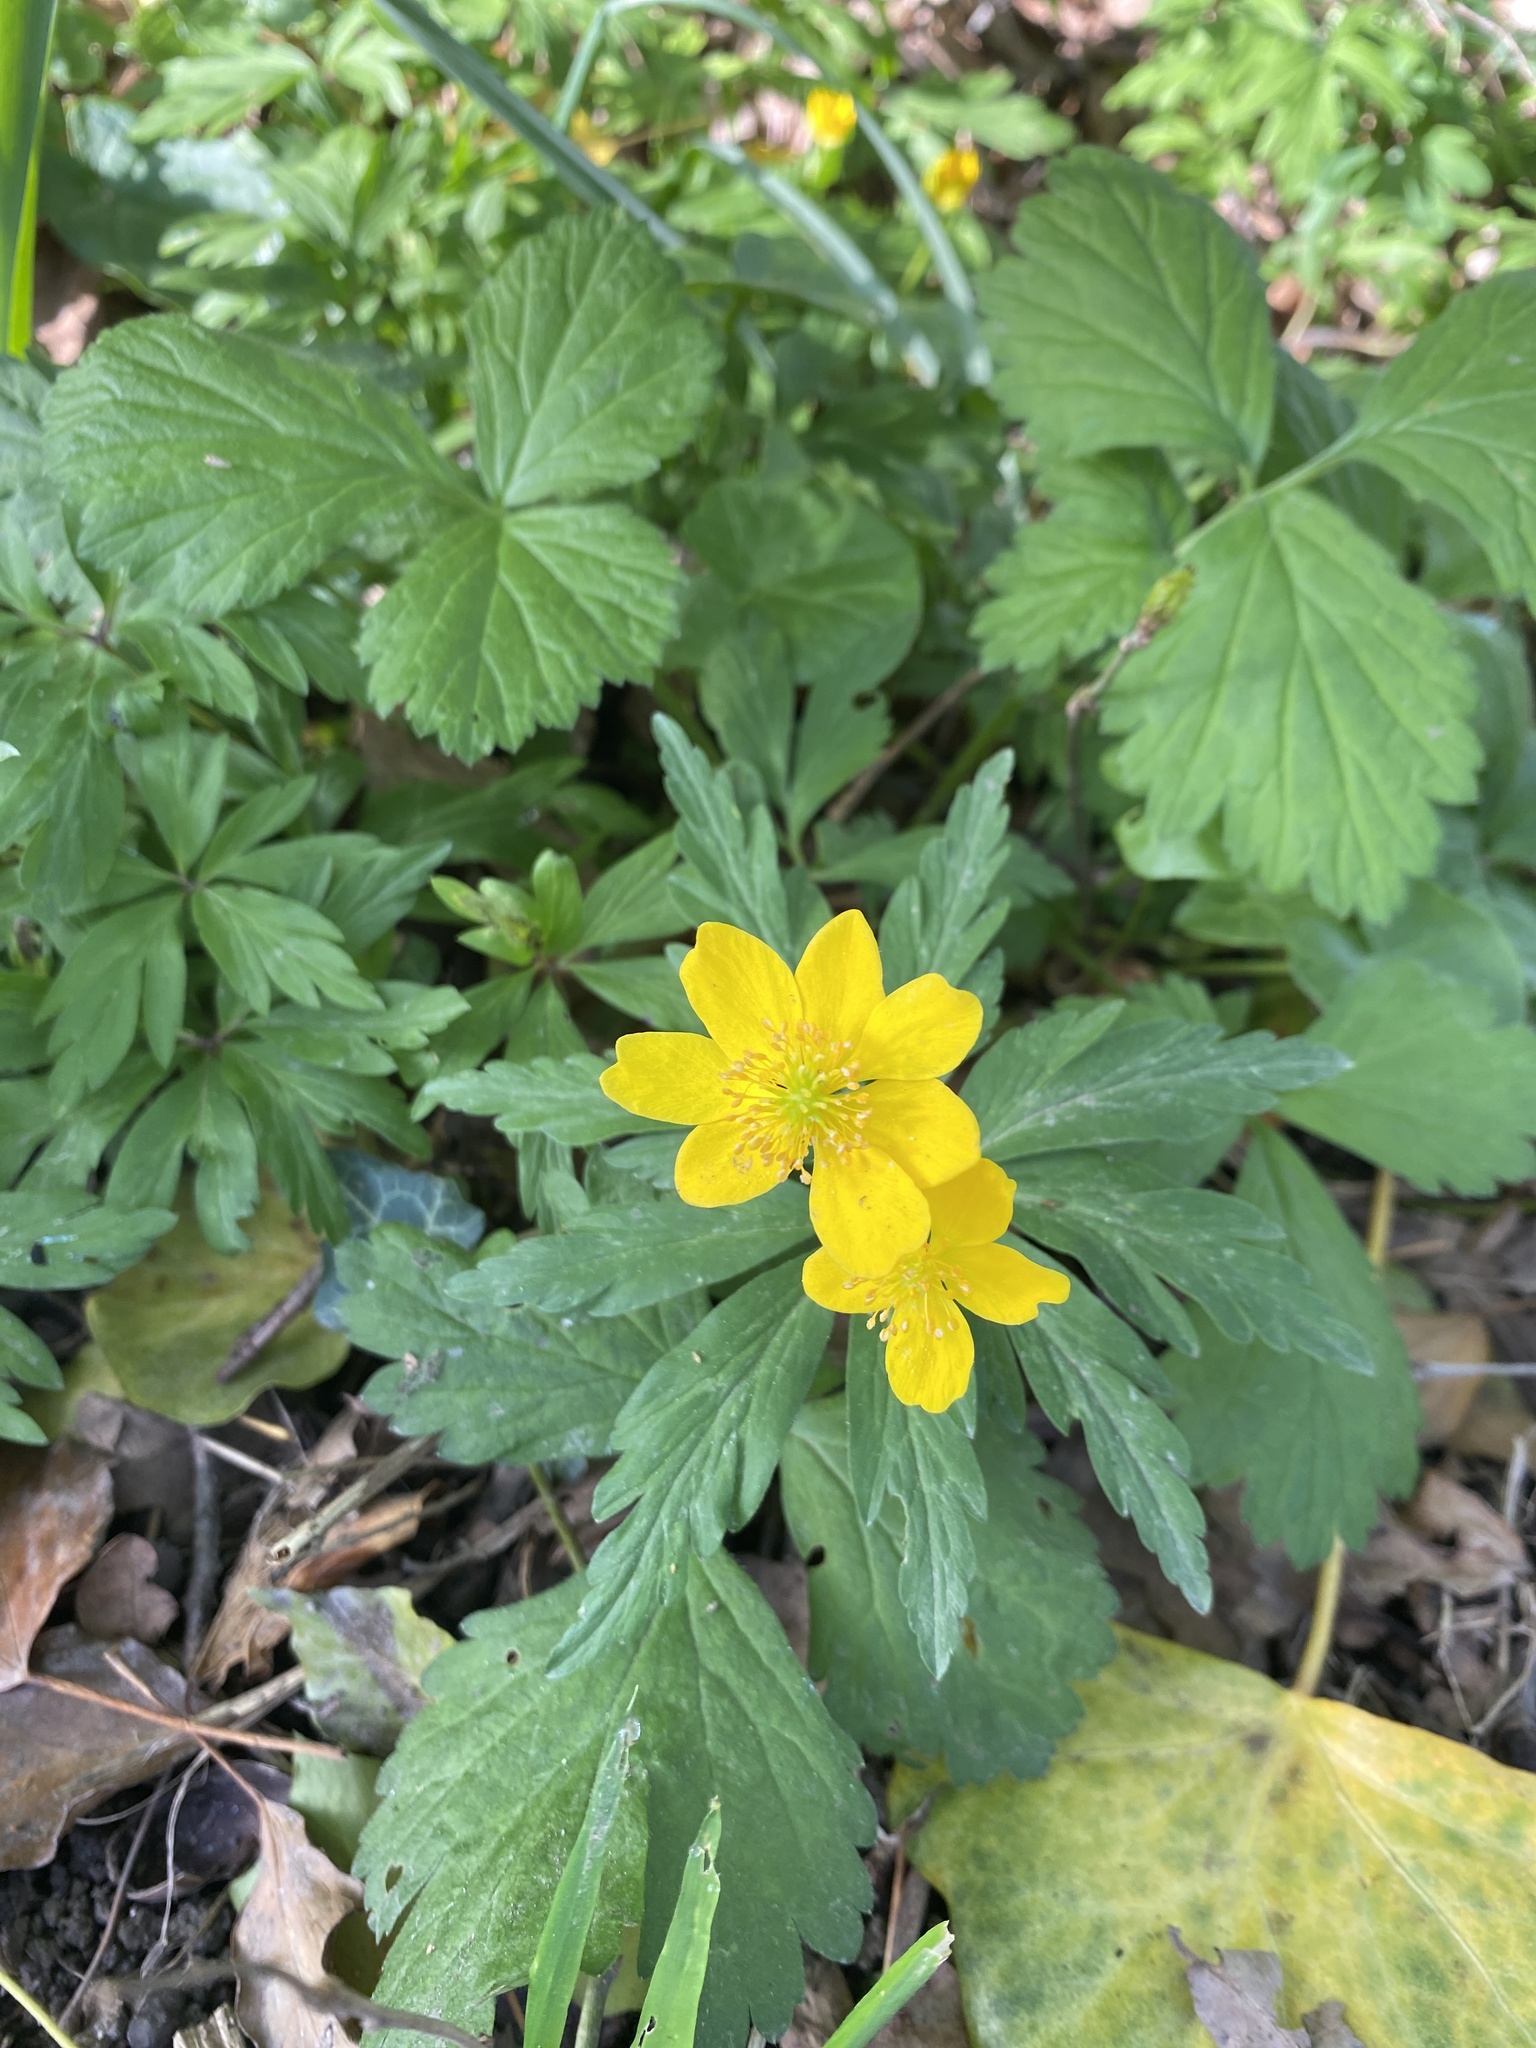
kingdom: Plantae
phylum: Tracheophyta
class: Magnoliopsida
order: Ranunculales
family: Ranunculaceae
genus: Anemone
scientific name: Anemone ranunculoides
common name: Yellow anemone
